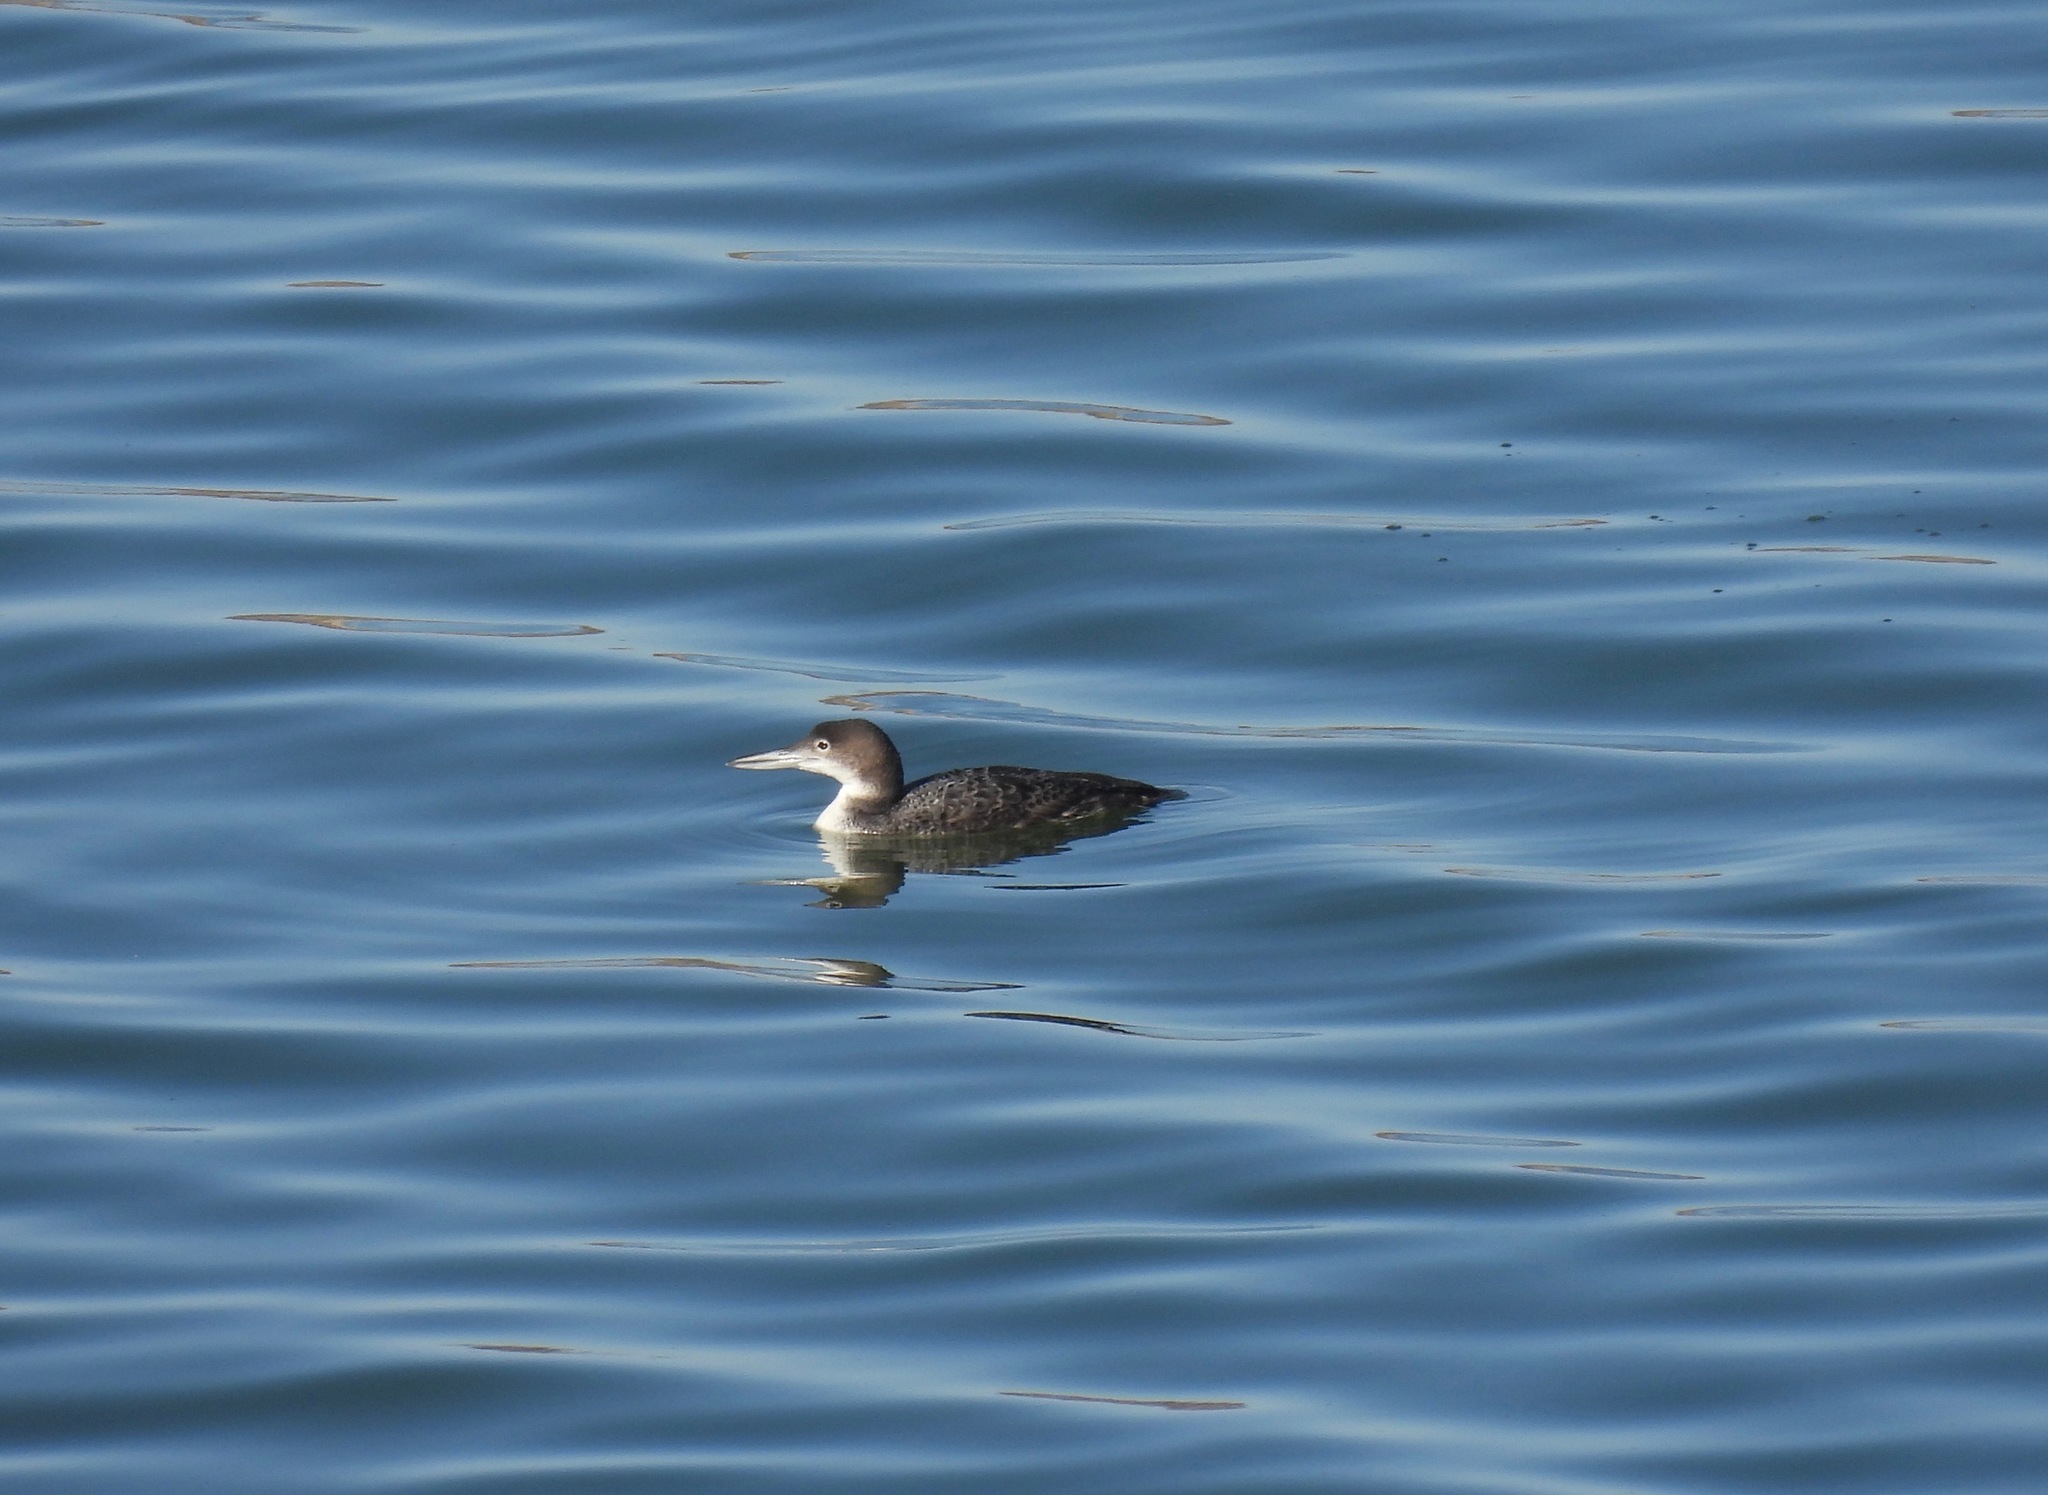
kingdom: Animalia
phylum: Chordata
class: Aves
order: Gaviiformes
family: Gaviidae
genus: Gavia
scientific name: Gavia immer
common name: Common loon
